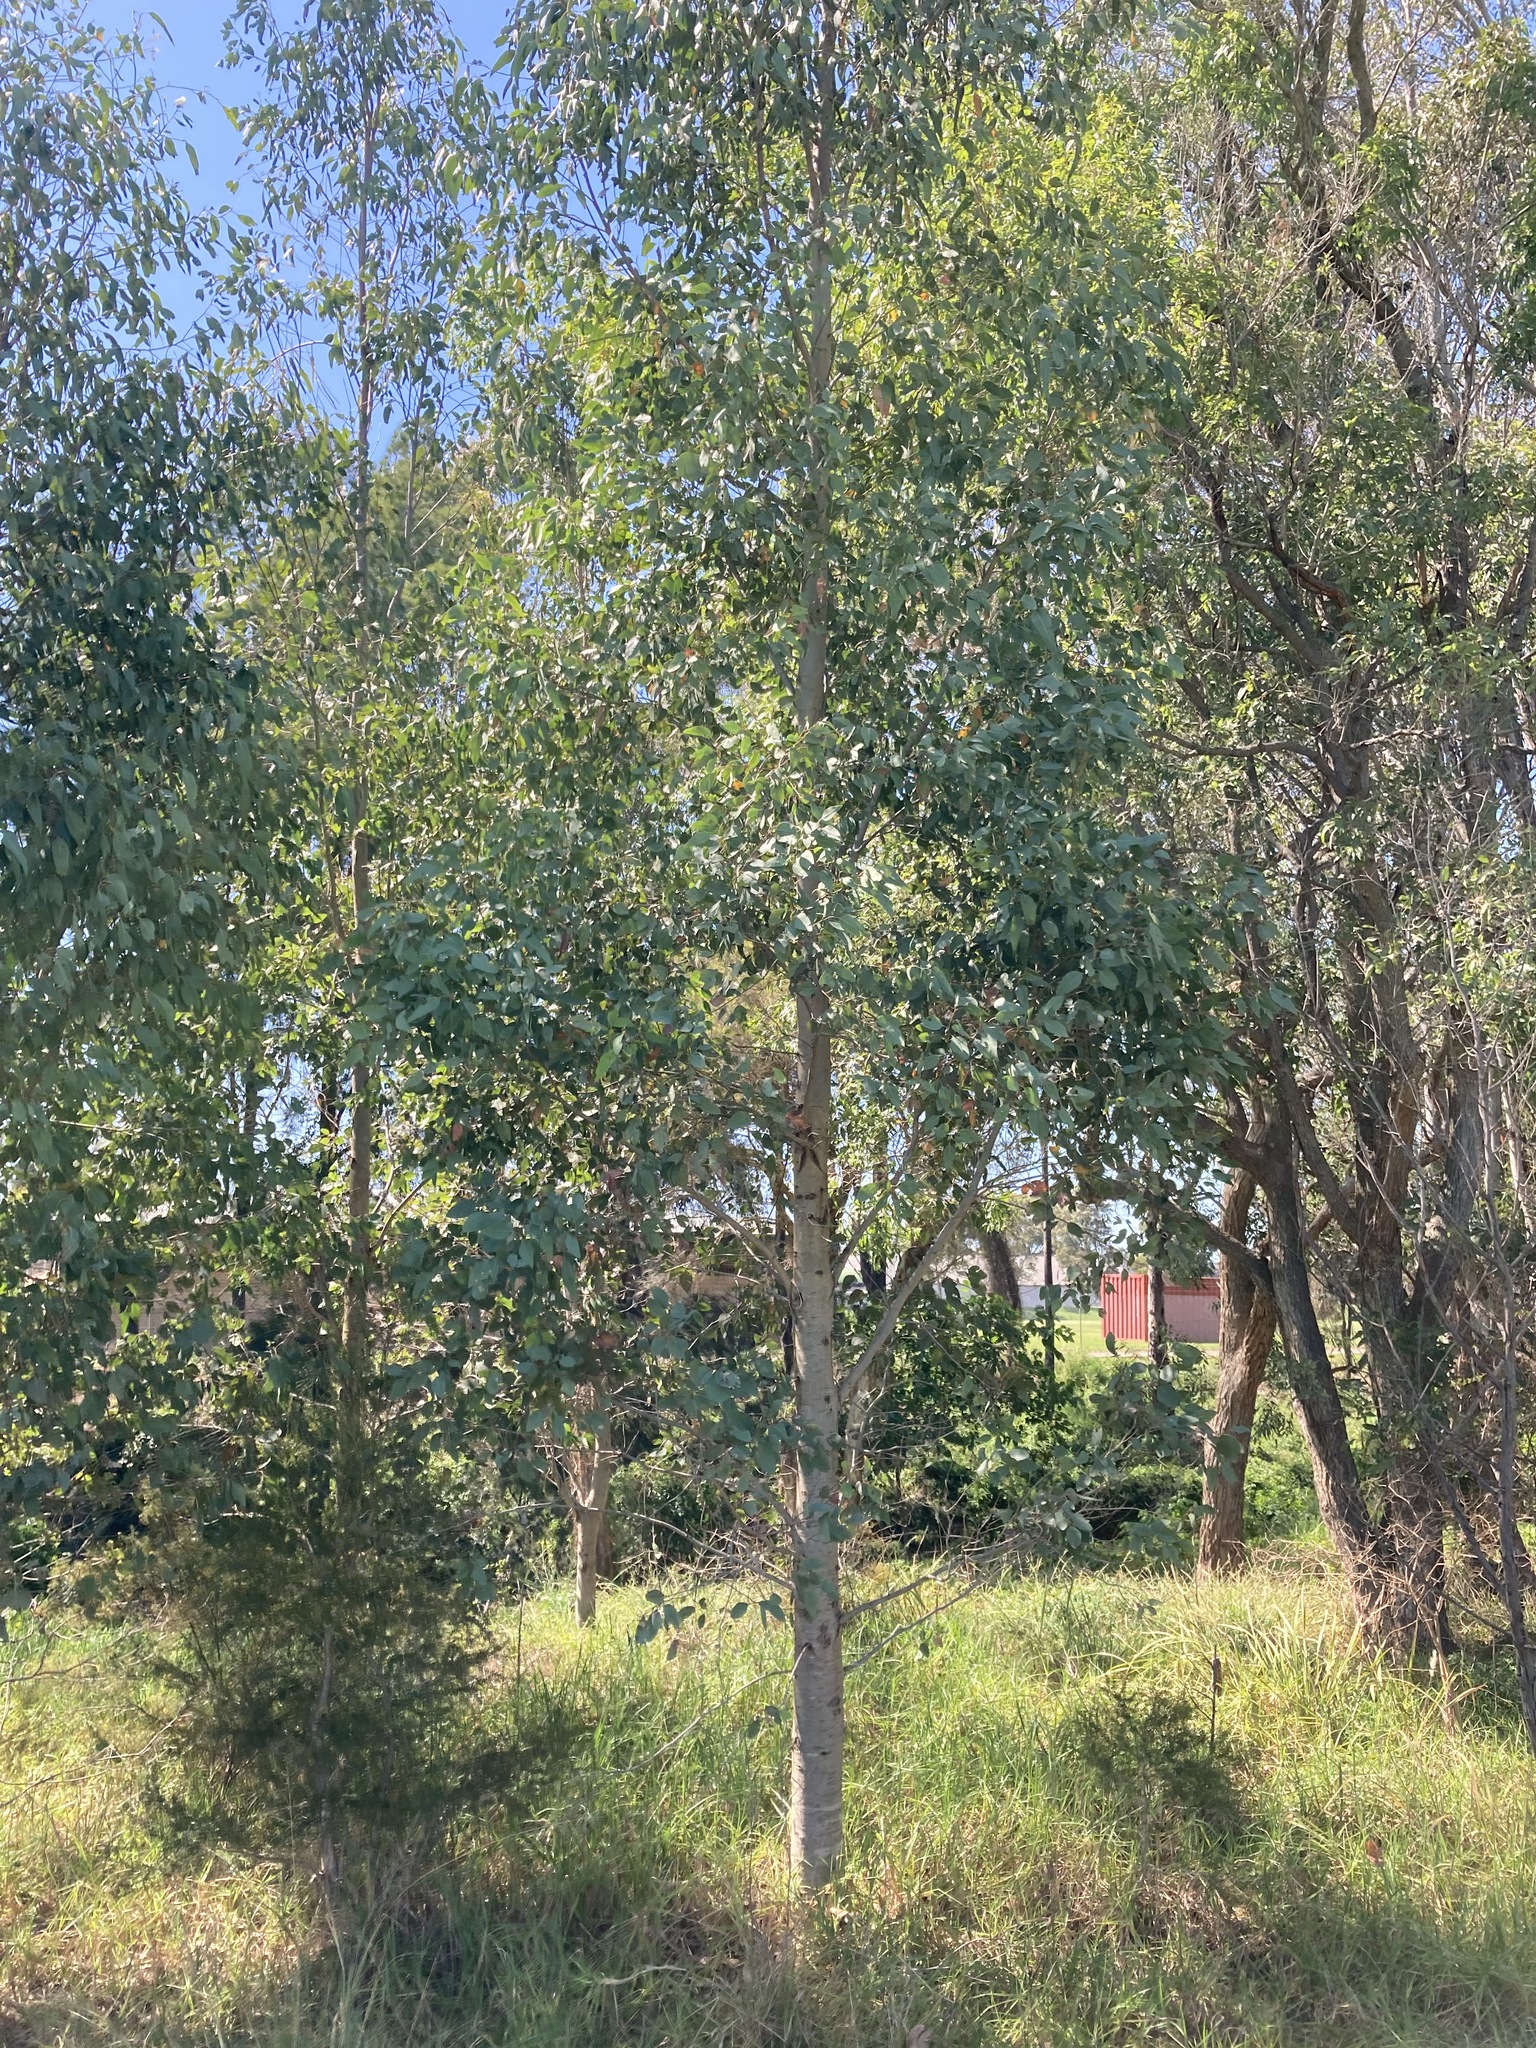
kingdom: Plantae
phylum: Tracheophyta
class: Magnoliopsida
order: Myrtales
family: Myrtaceae
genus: Eucalyptus
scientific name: Eucalyptus amplifolia
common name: Cabbage gum
